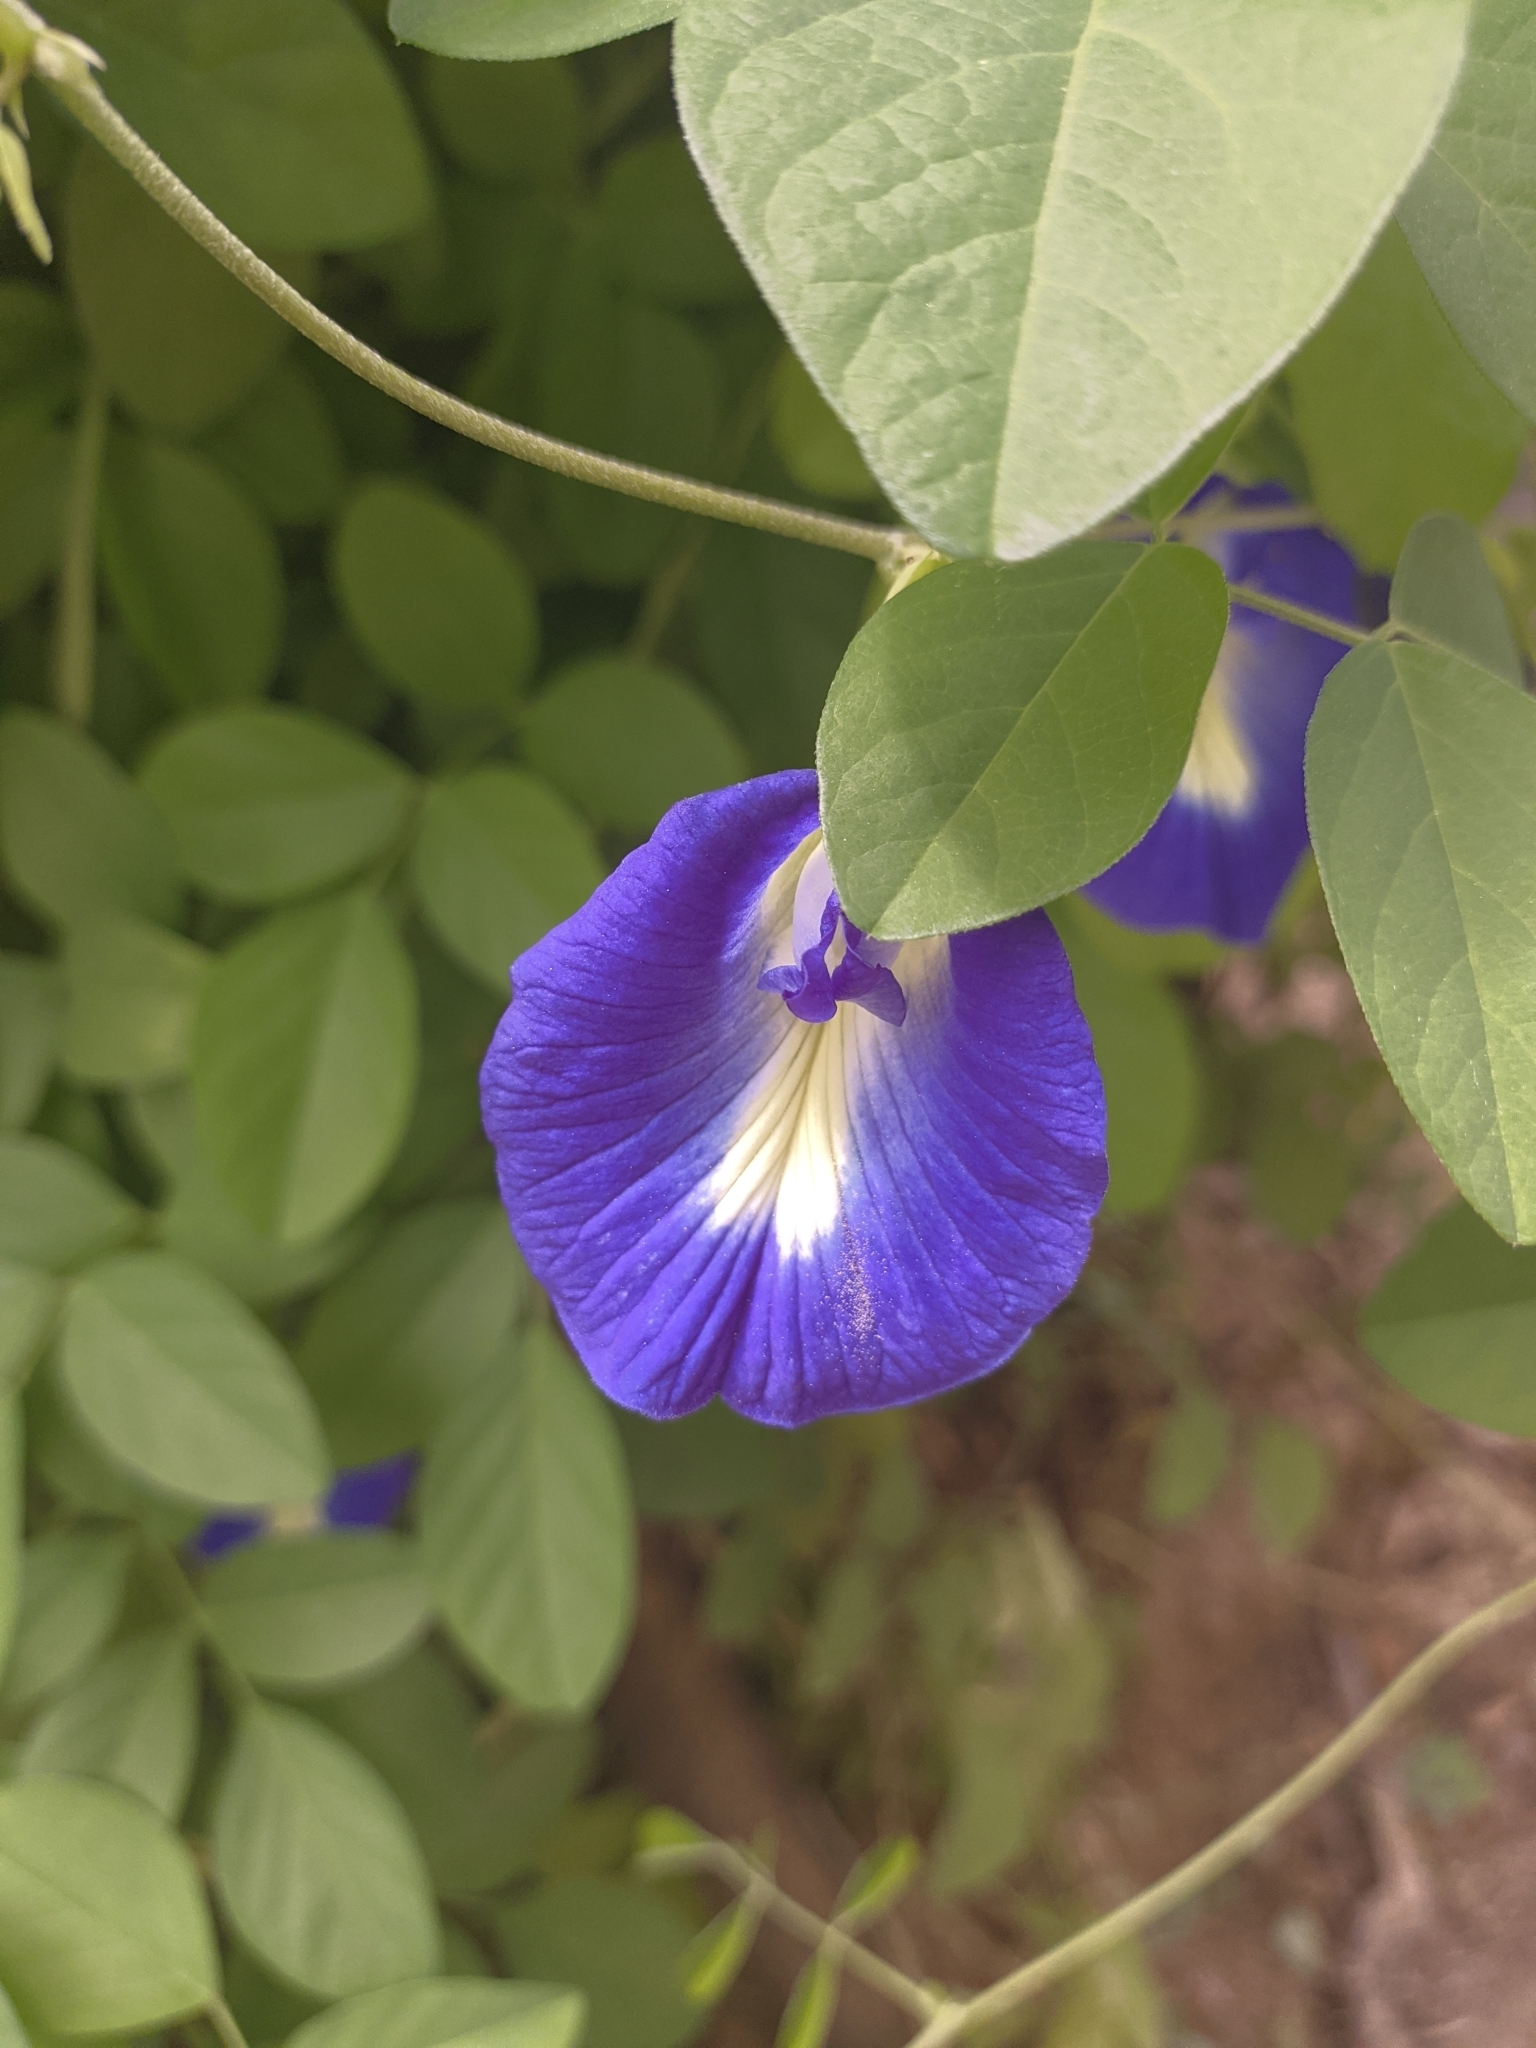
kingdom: Plantae
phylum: Tracheophyta
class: Magnoliopsida
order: Fabales
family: Fabaceae
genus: Clitoria
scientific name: Clitoria ternatea
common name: Asian pigeonwings
